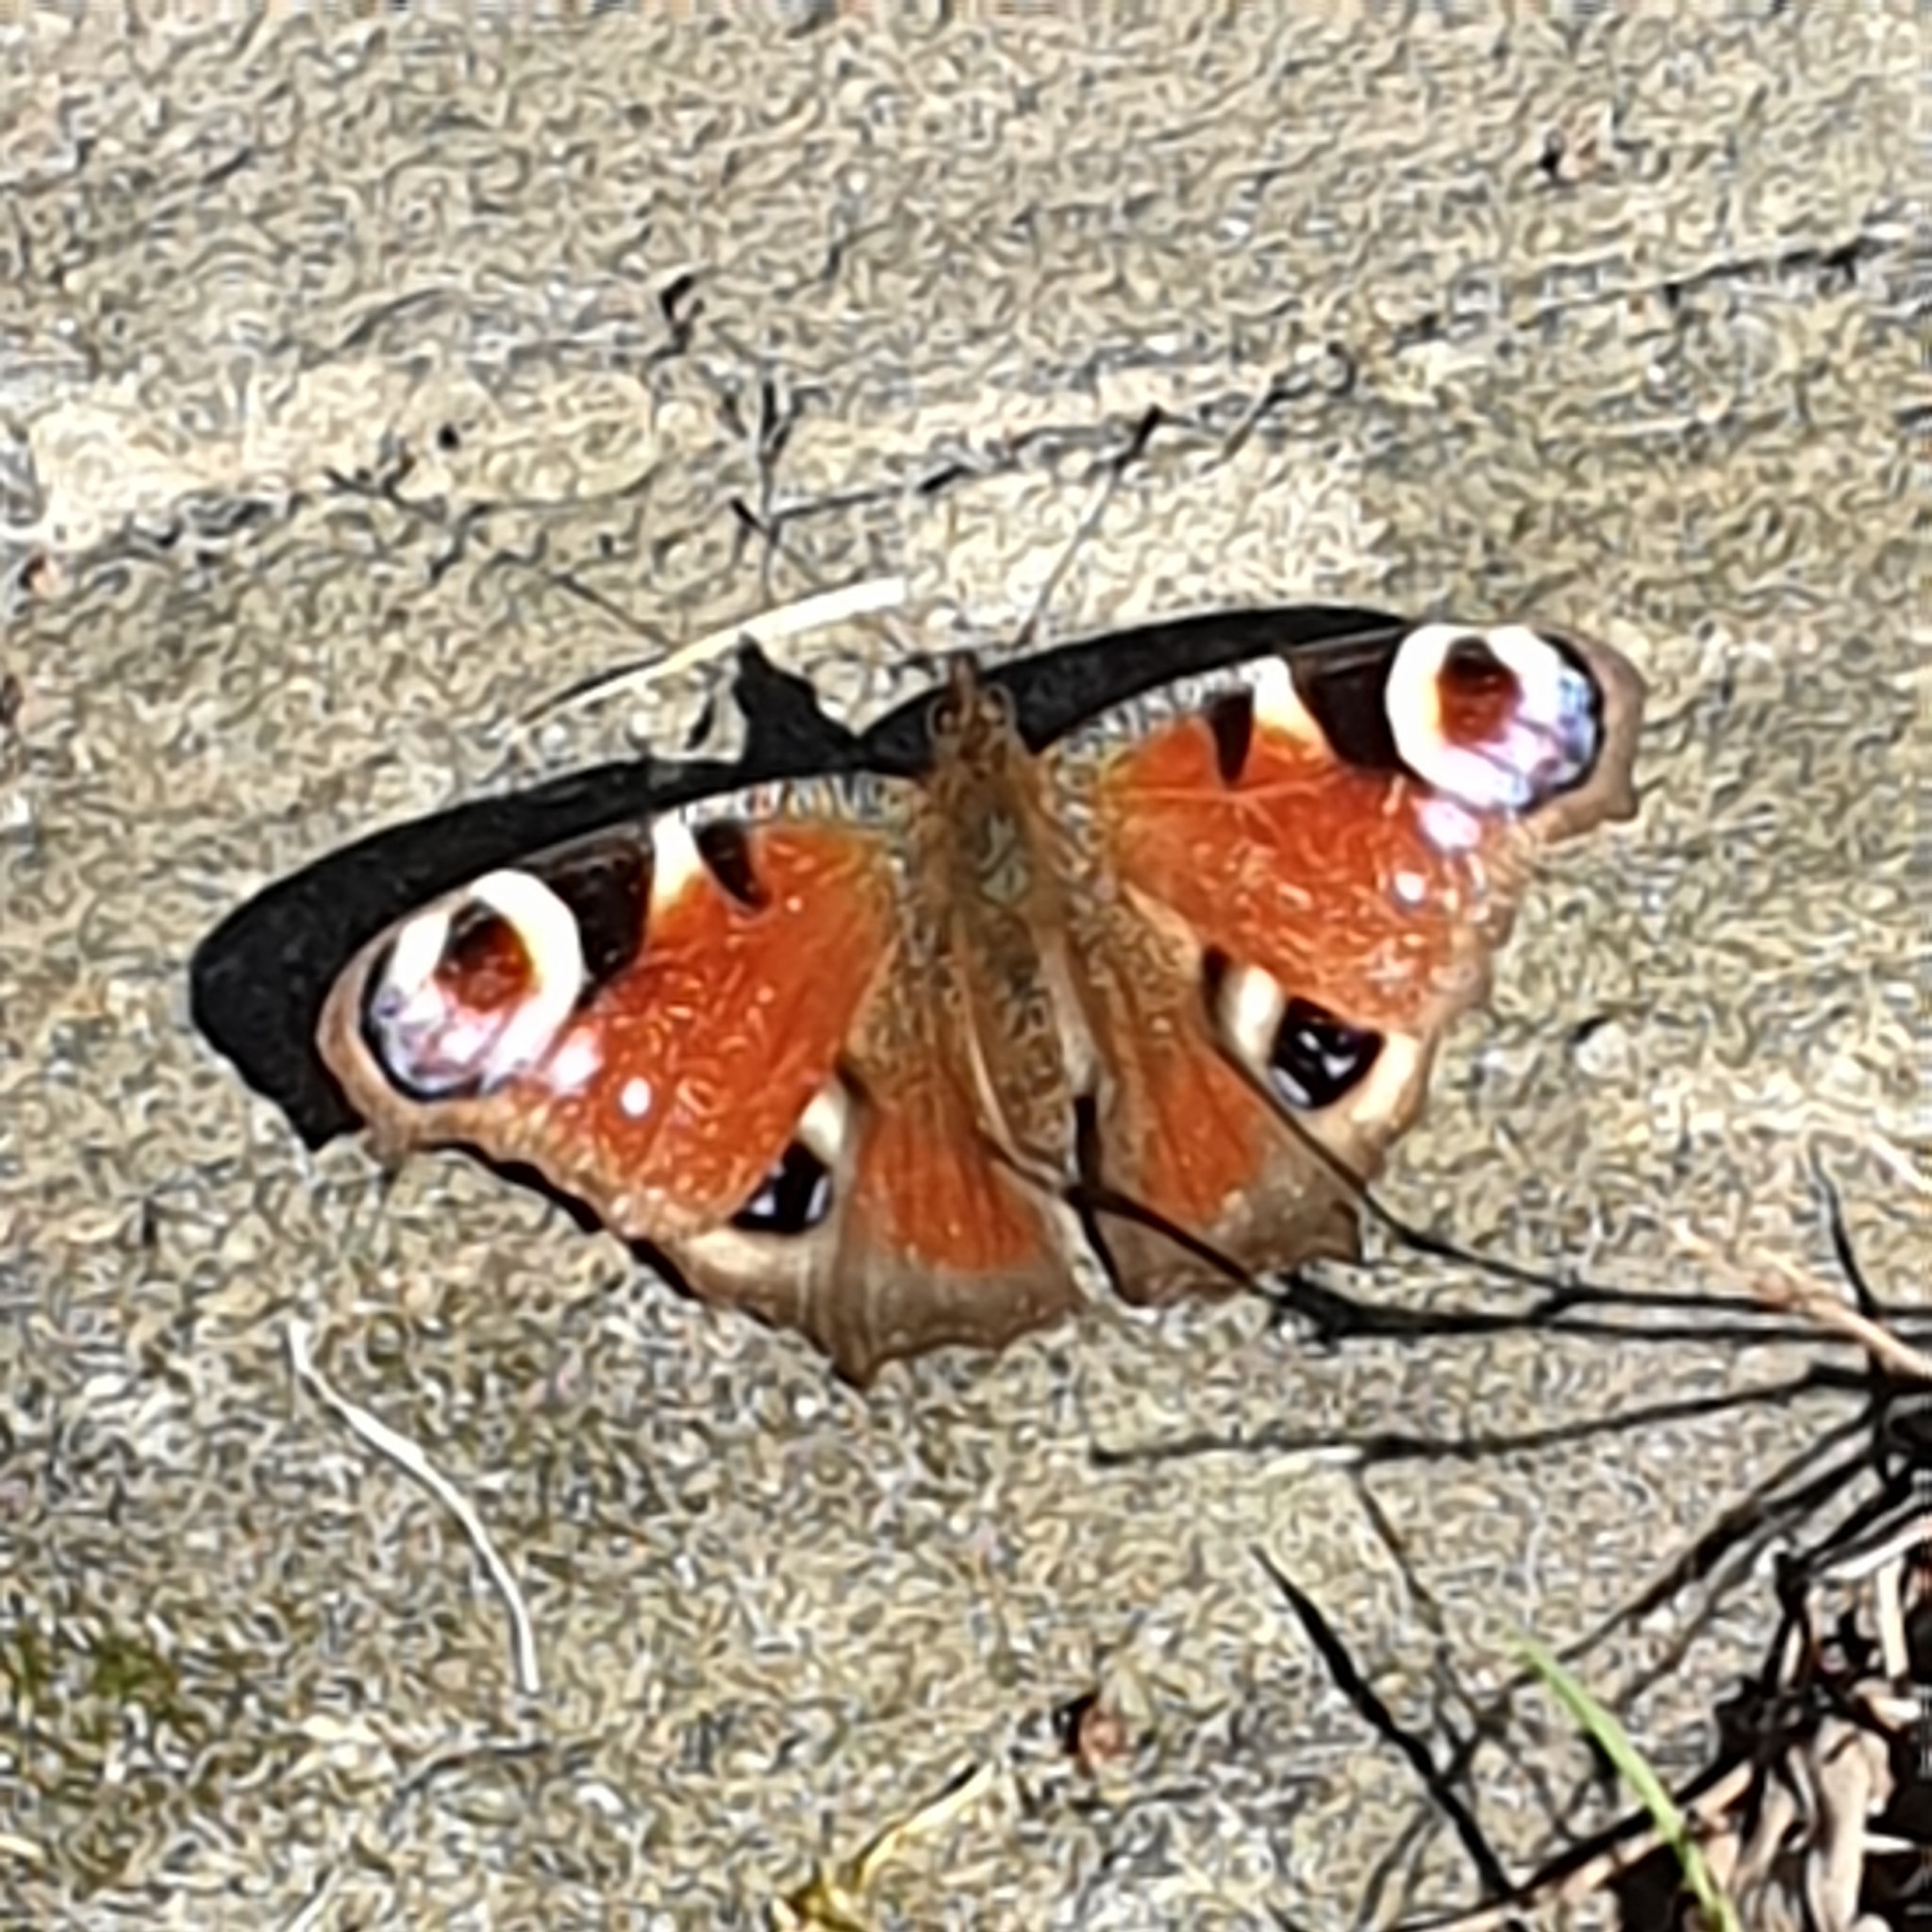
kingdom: Animalia
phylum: Arthropoda
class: Insecta
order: Lepidoptera
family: Nymphalidae
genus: Aglais
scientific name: Aglais io
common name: Peacock
